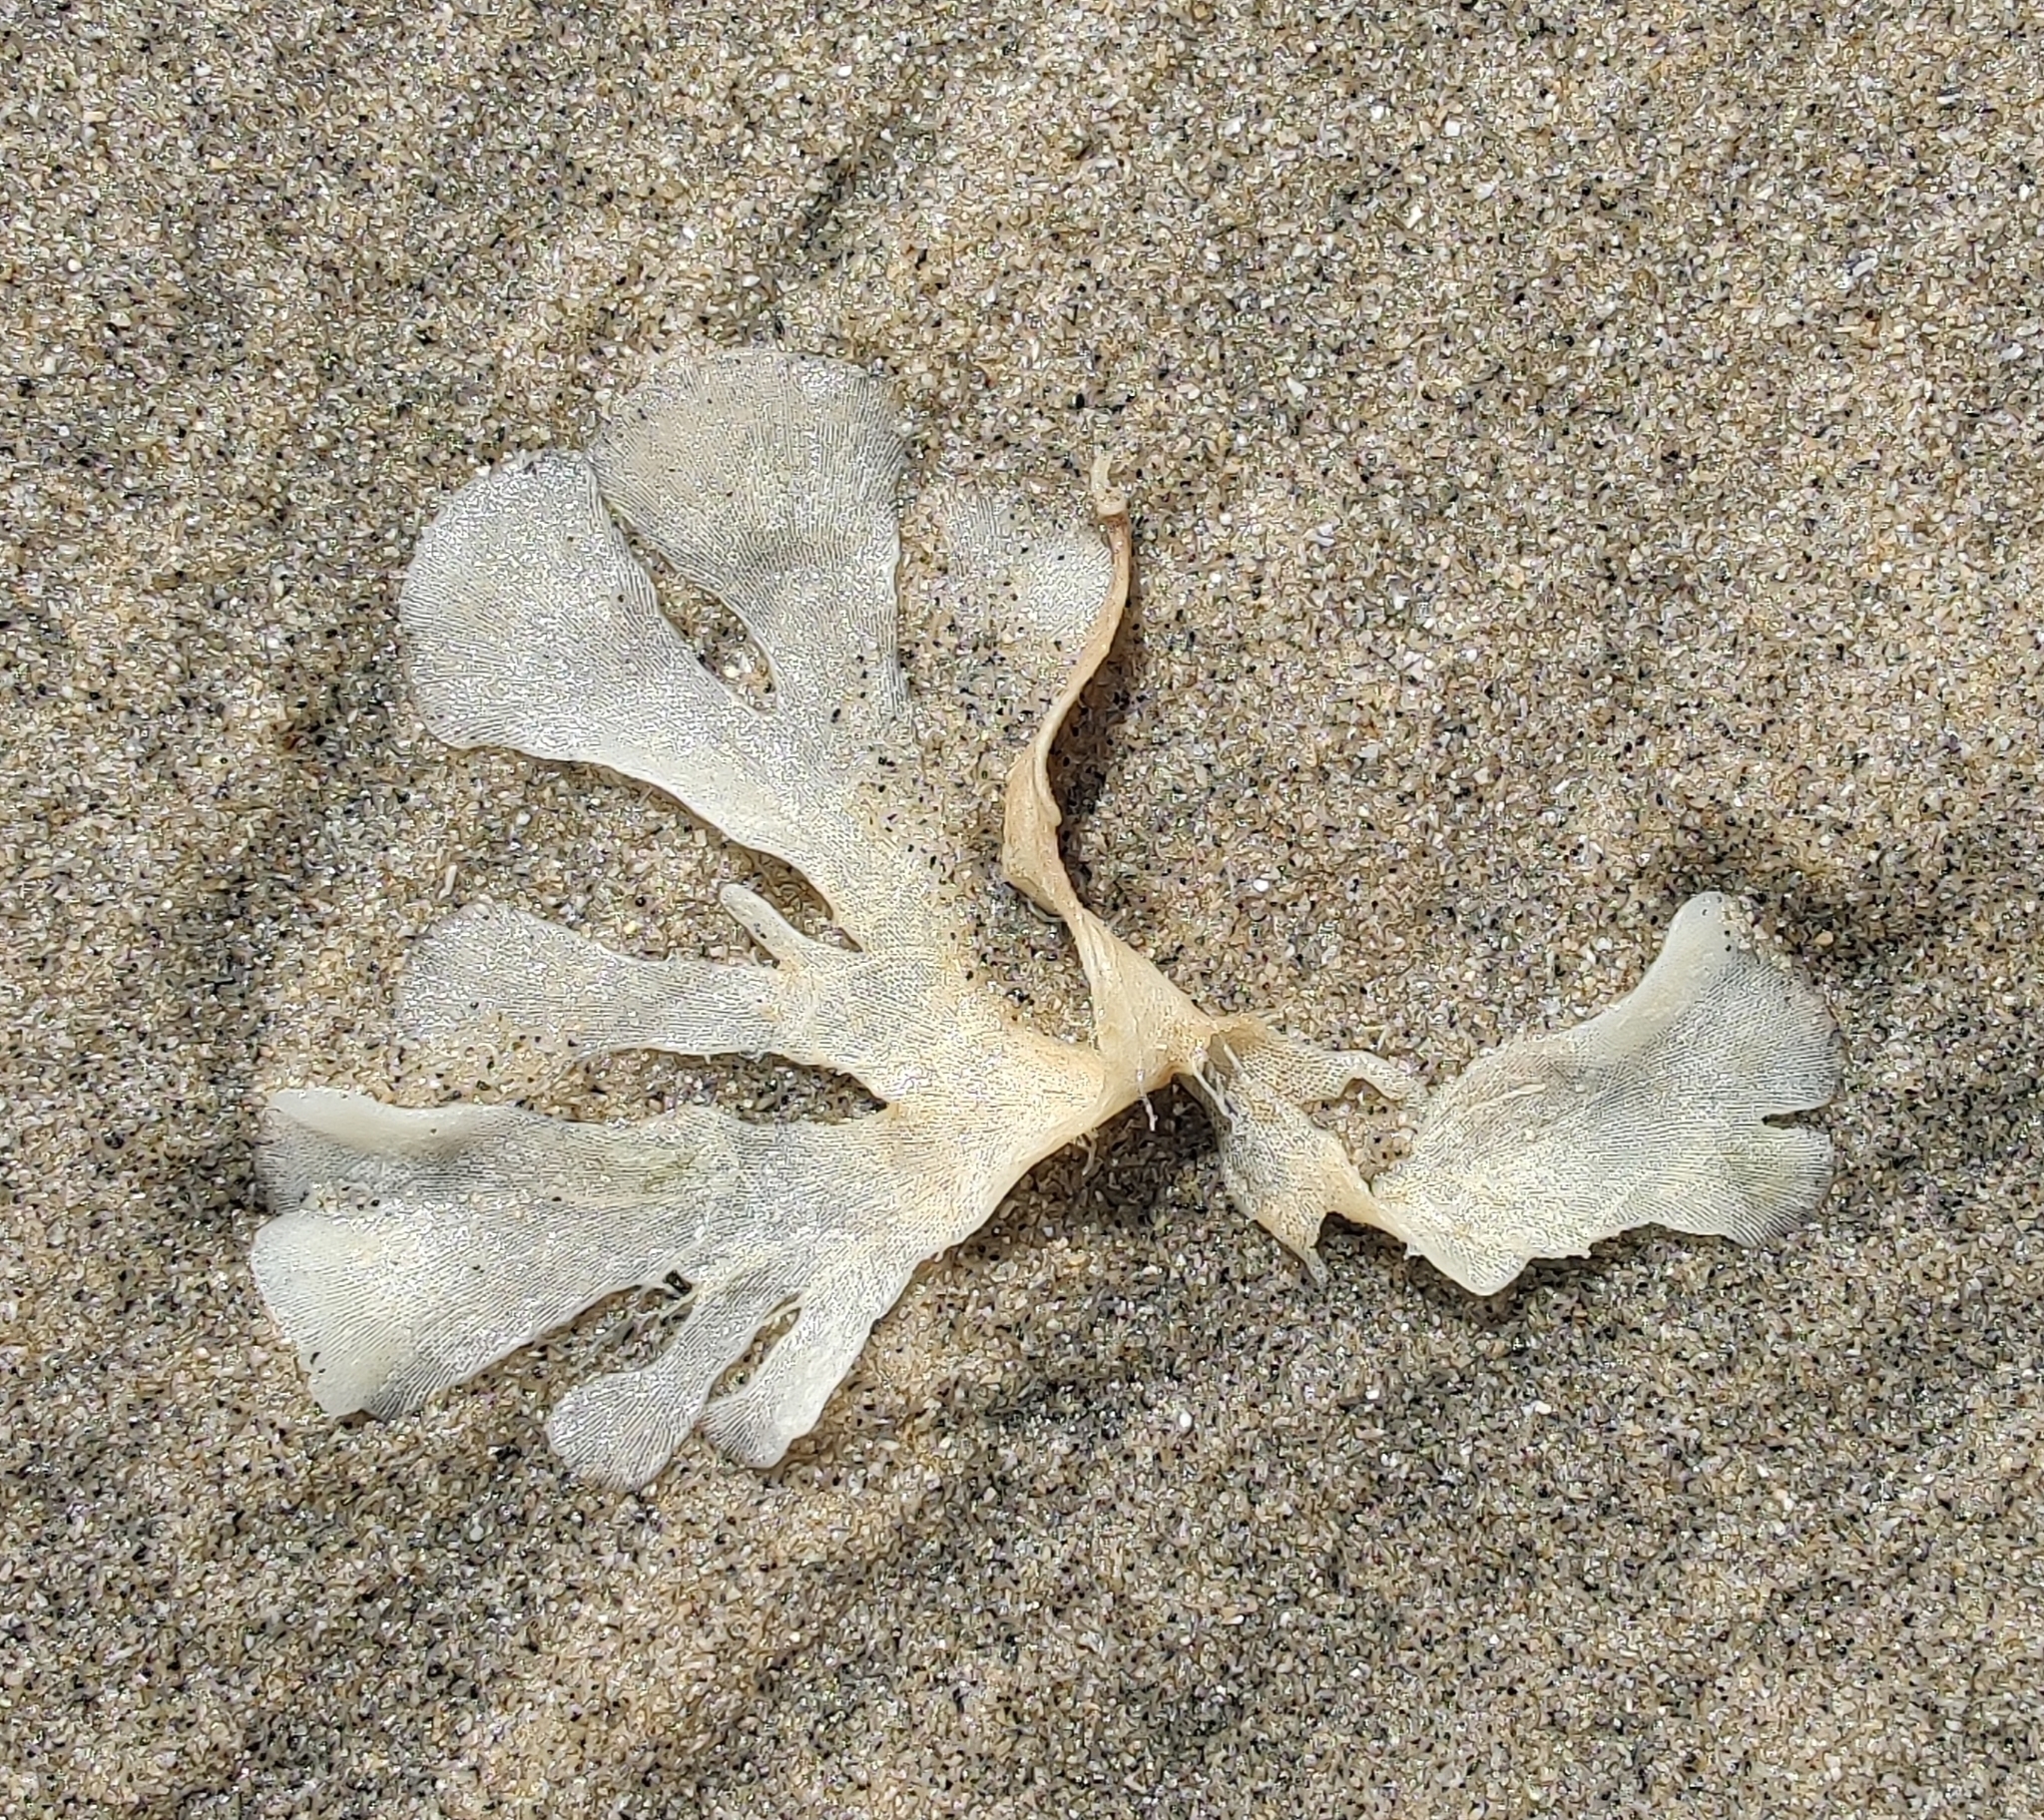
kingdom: Animalia
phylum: Bryozoa
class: Gymnolaemata
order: Cheilostomatida
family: Flustridae
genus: Flustra
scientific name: Flustra foliacea
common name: Hornwrack
